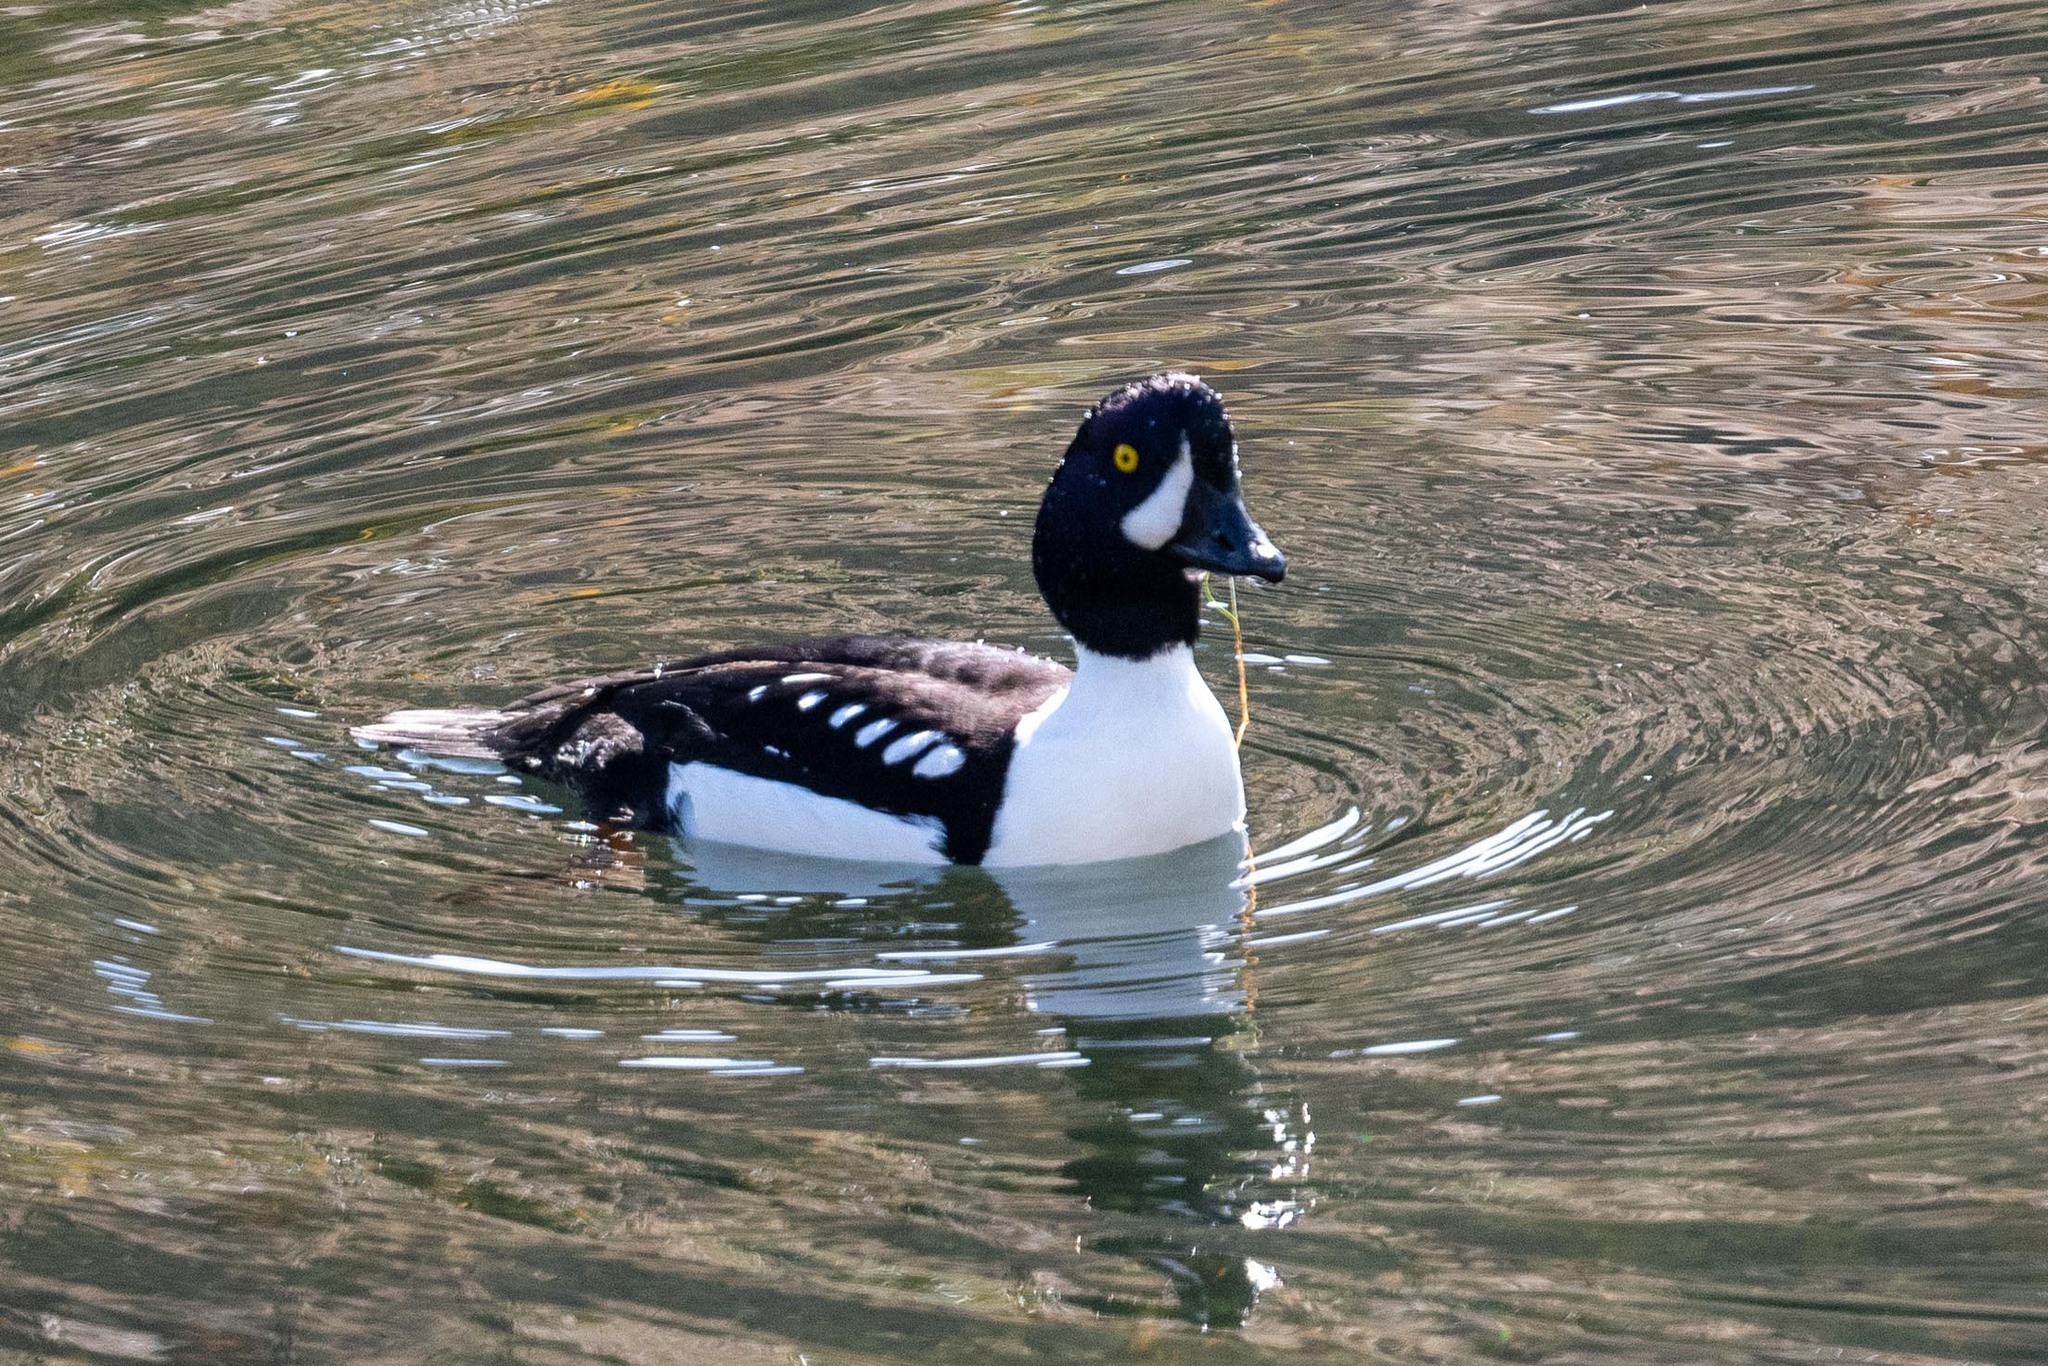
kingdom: Animalia
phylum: Chordata
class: Aves
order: Anseriformes
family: Anatidae
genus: Bucephala
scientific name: Bucephala islandica
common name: Barrow's goldeneye
